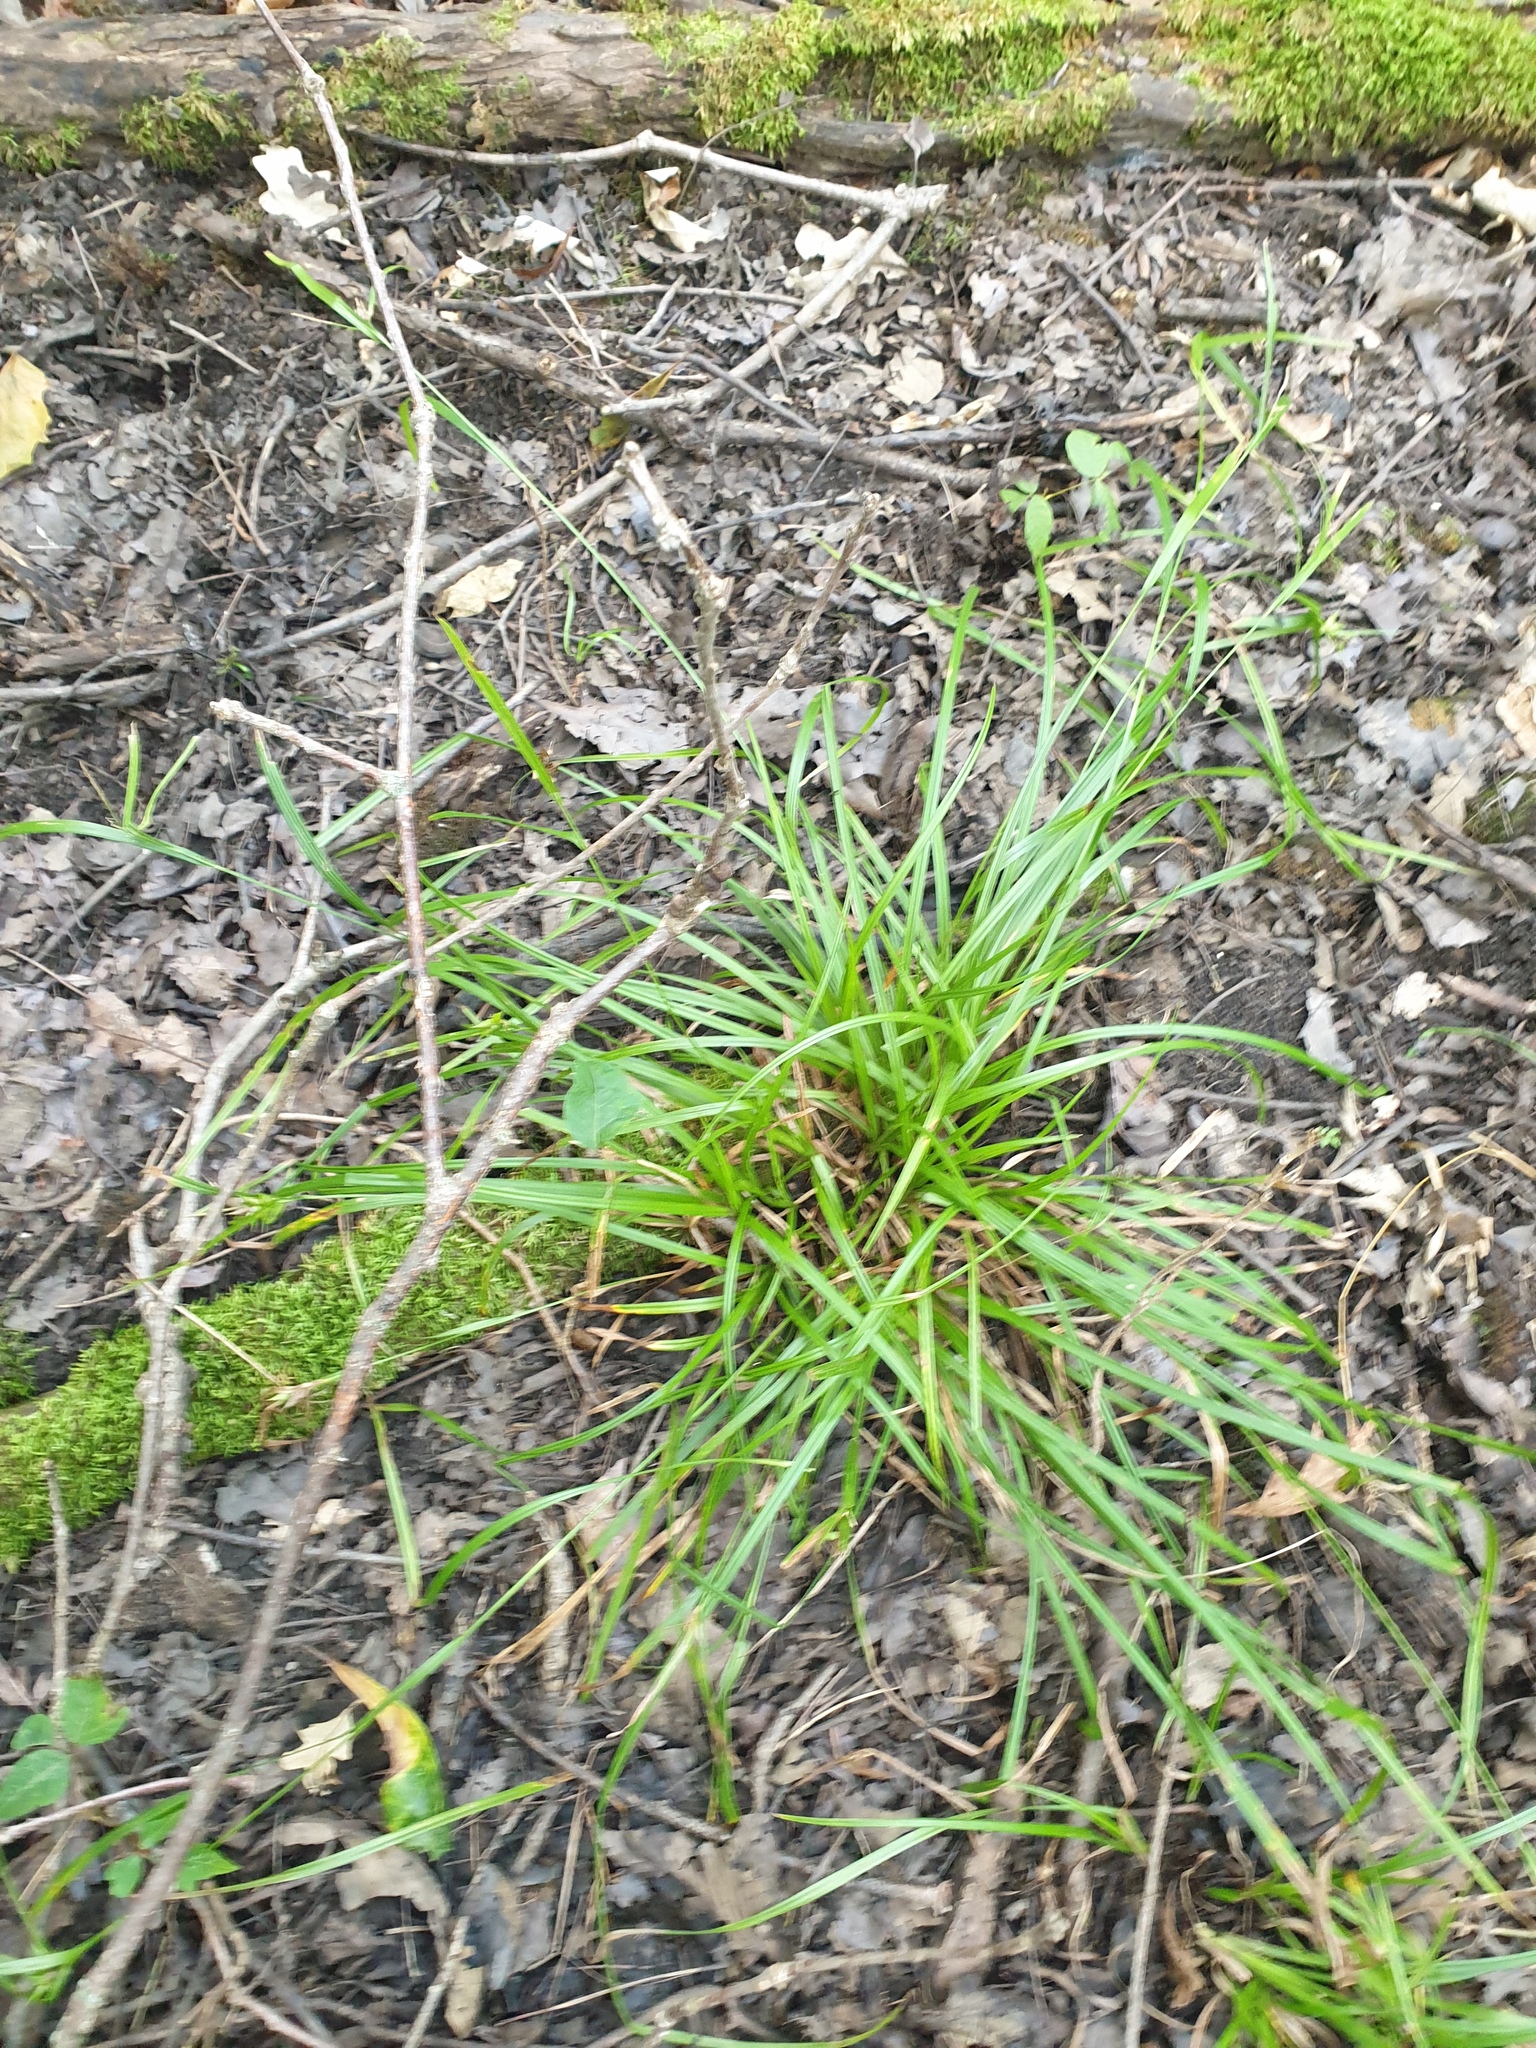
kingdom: Plantae
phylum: Tracheophyta
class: Liliopsida
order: Poales
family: Cyperaceae
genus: Carex
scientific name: Carex intumescens
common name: Greater bladder sedge
